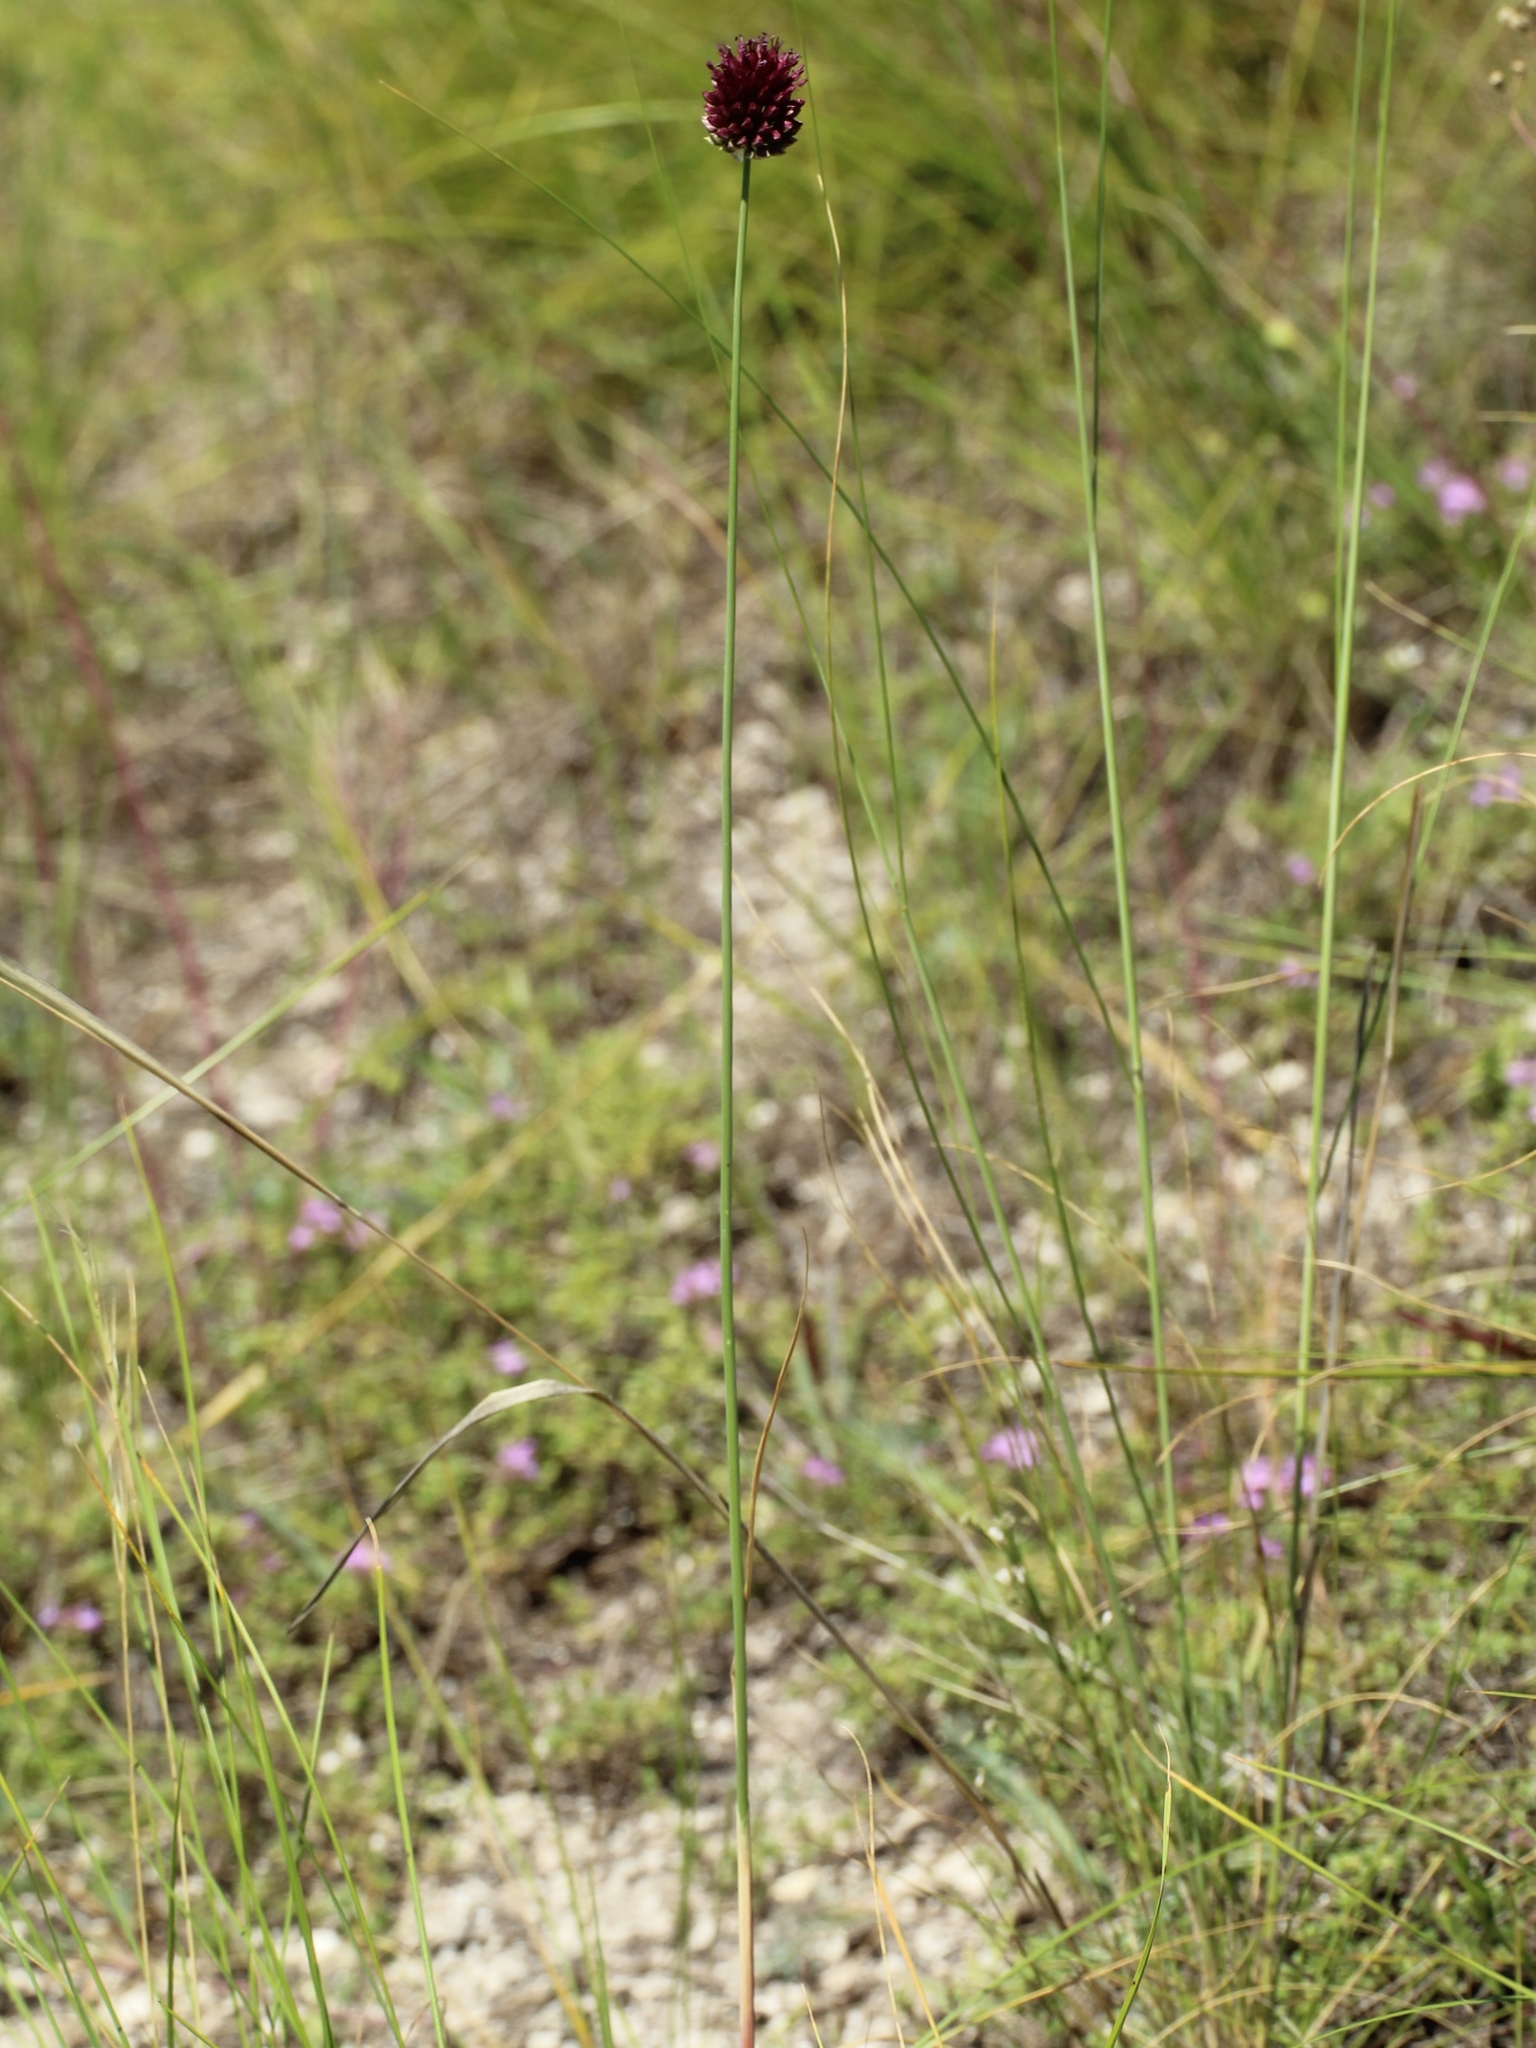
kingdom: Plantae
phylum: Tracheophyta
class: Liliopsida
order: Asparagales
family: Amaryllidaceae
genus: Allium
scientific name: Allium sphaerocephalon
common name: Round-headed leek
